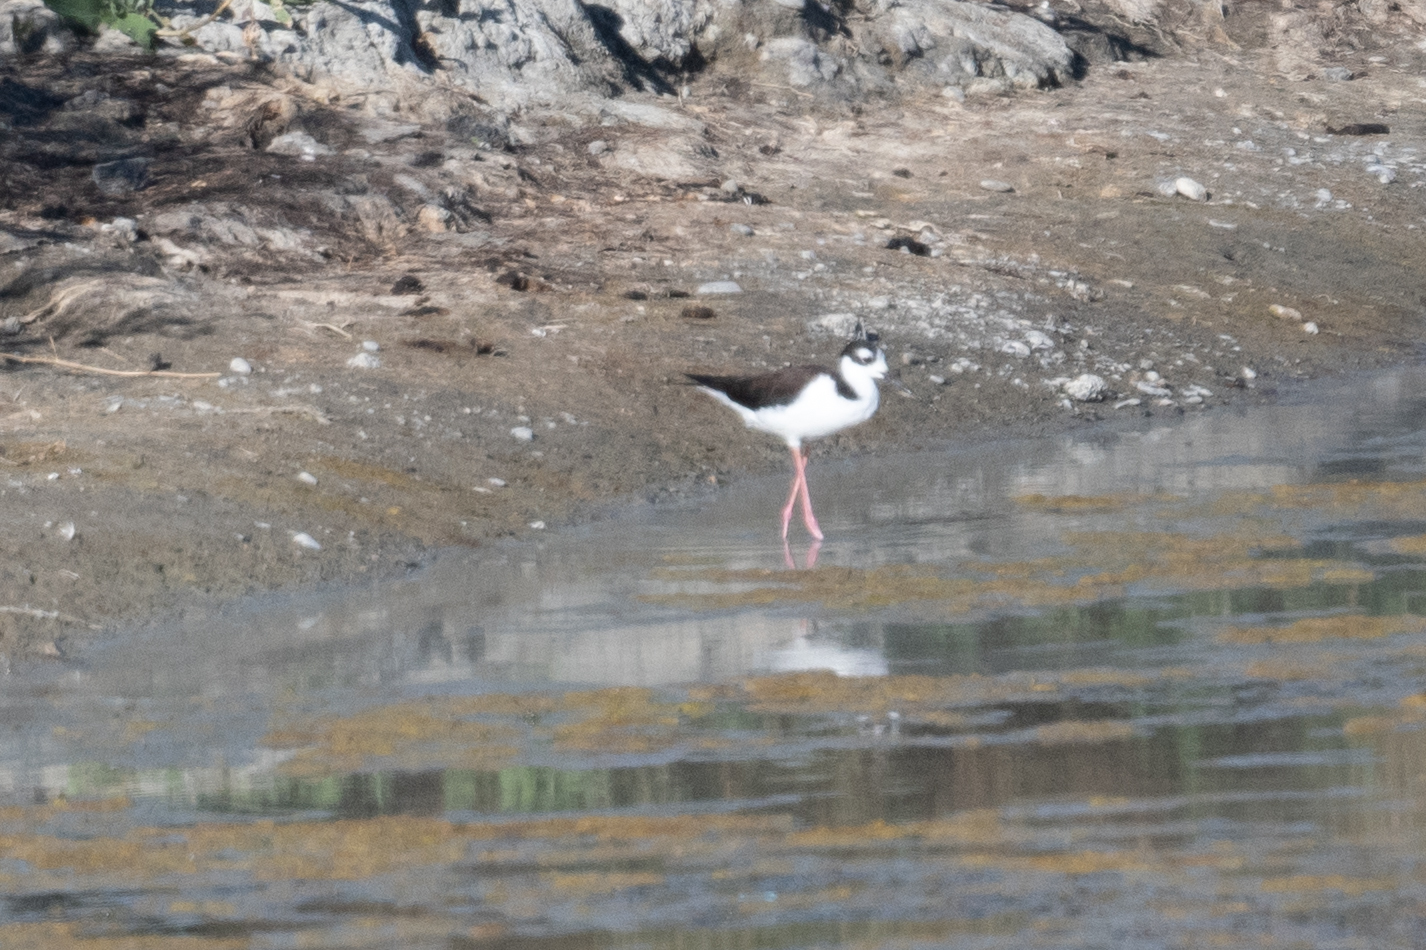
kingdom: Animalia
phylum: Chordata
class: Aves
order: Charadriiformes
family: Recurvirostridae
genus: Himantopus
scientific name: Himantopus mexicanus
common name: Black-necked stilt
